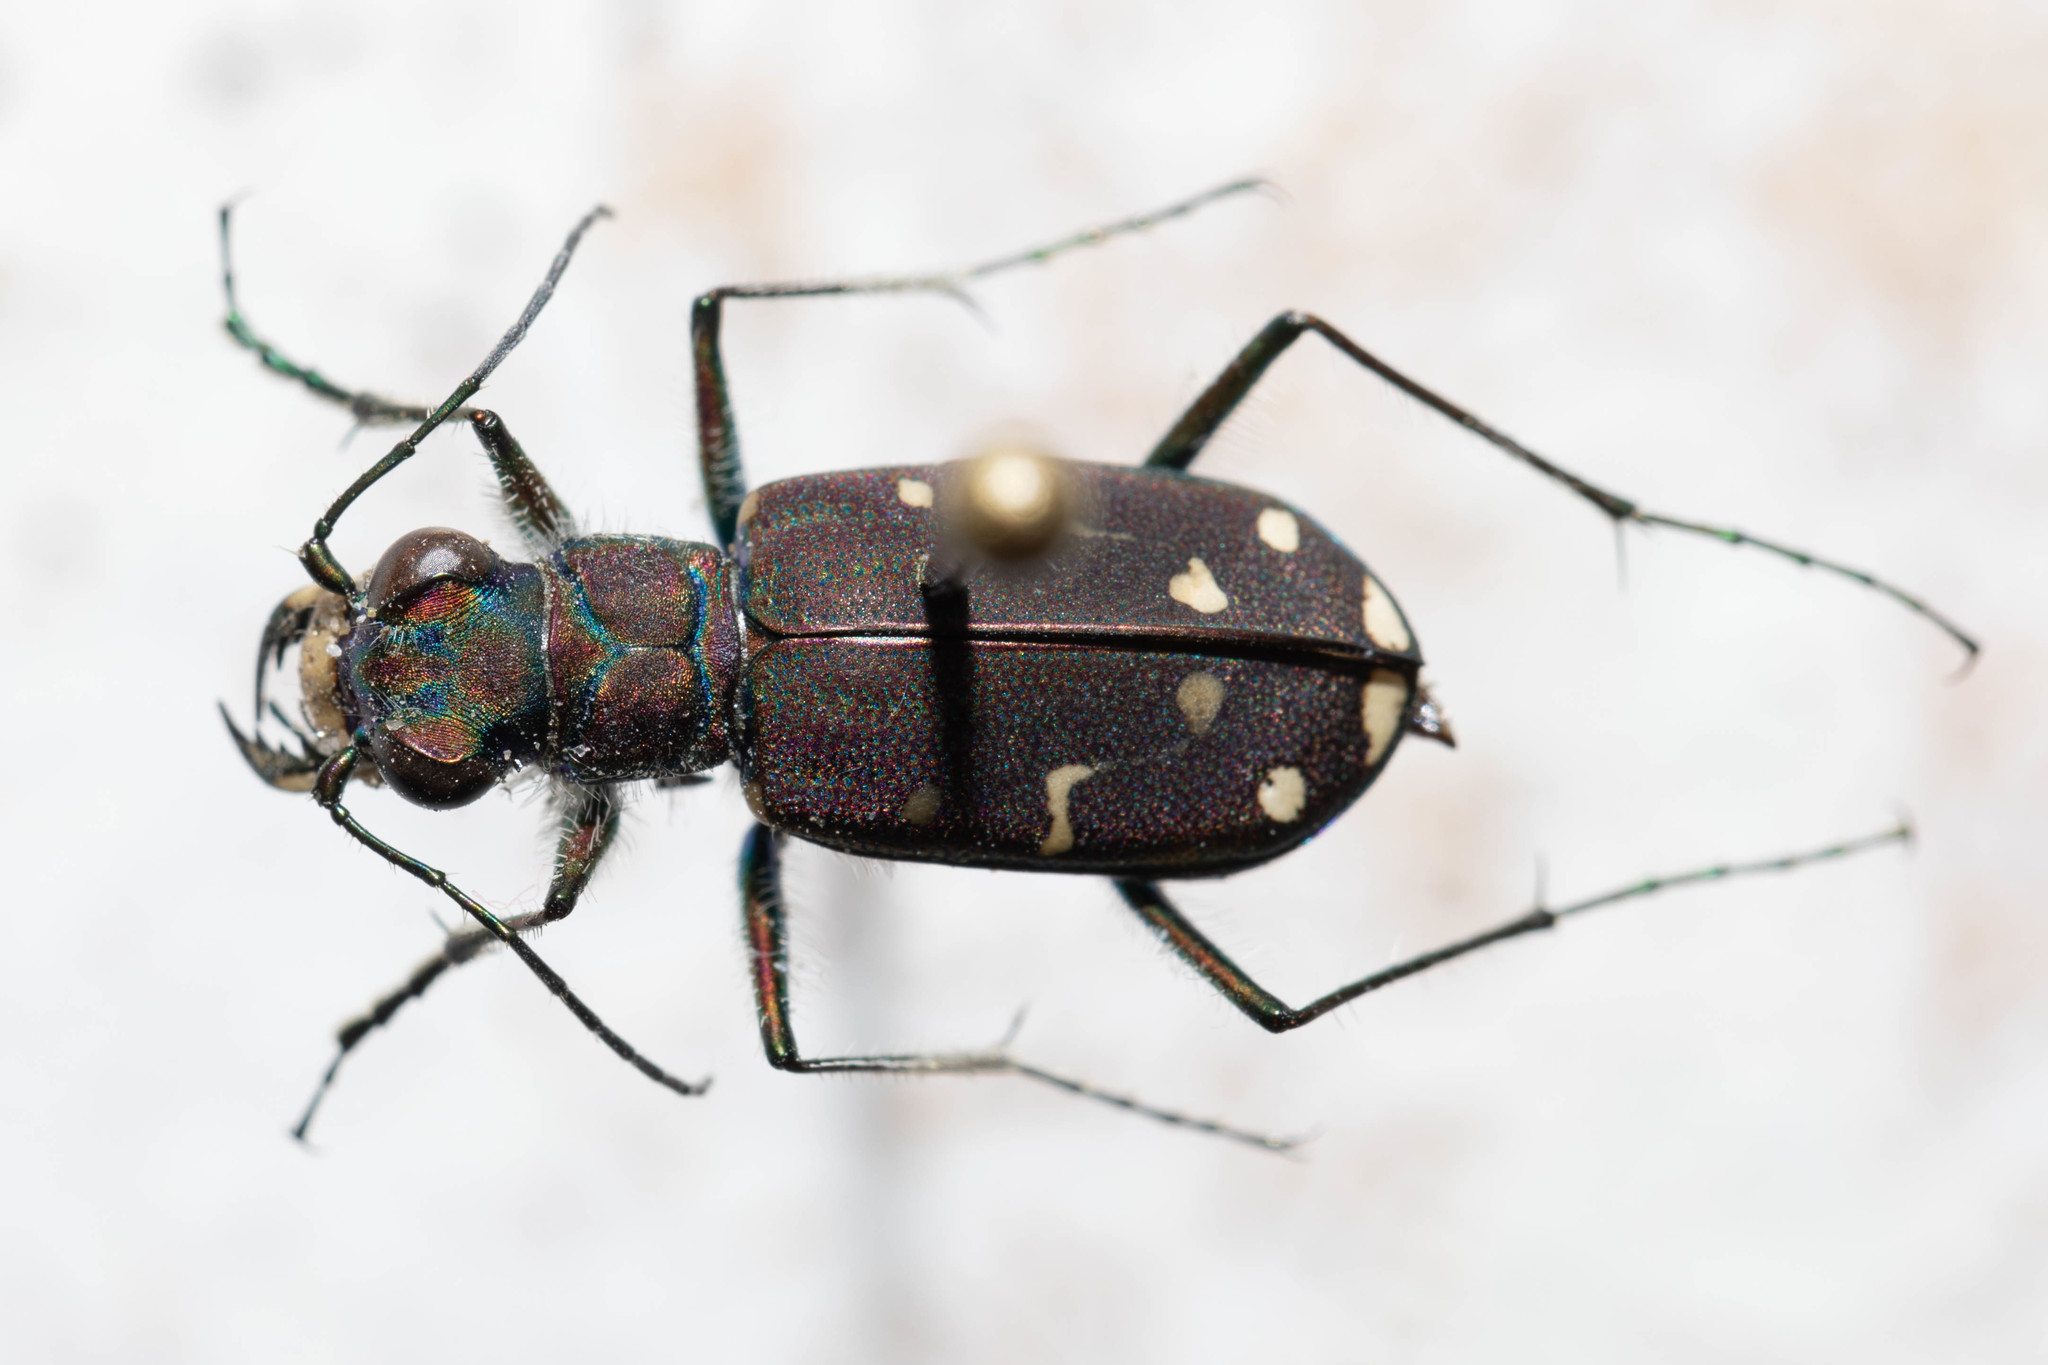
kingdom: Animalia
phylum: Arthropoda
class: Insecta
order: Coleoptera
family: Carabidae
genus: Cicindela
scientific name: Cicindela oregona
